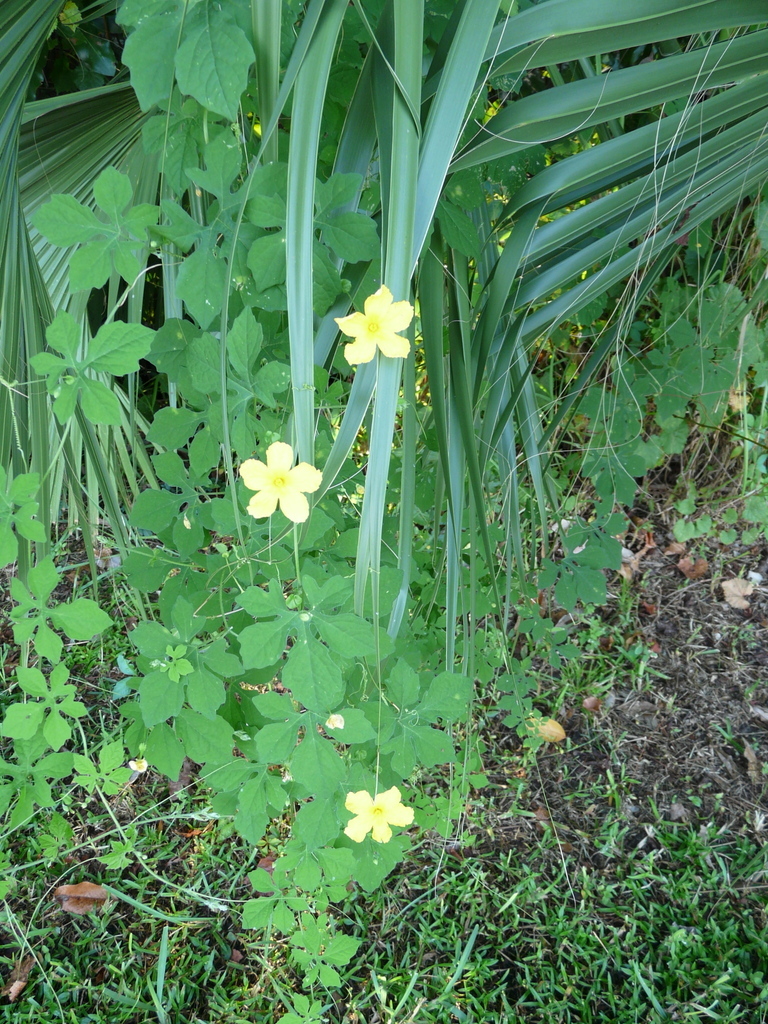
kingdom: Plantae
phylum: Tracheophyta
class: Magnoliopsida
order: Cucurbitales
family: Cucurbitaceae
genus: Momordica
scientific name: Momordica charantia
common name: Balsampear
